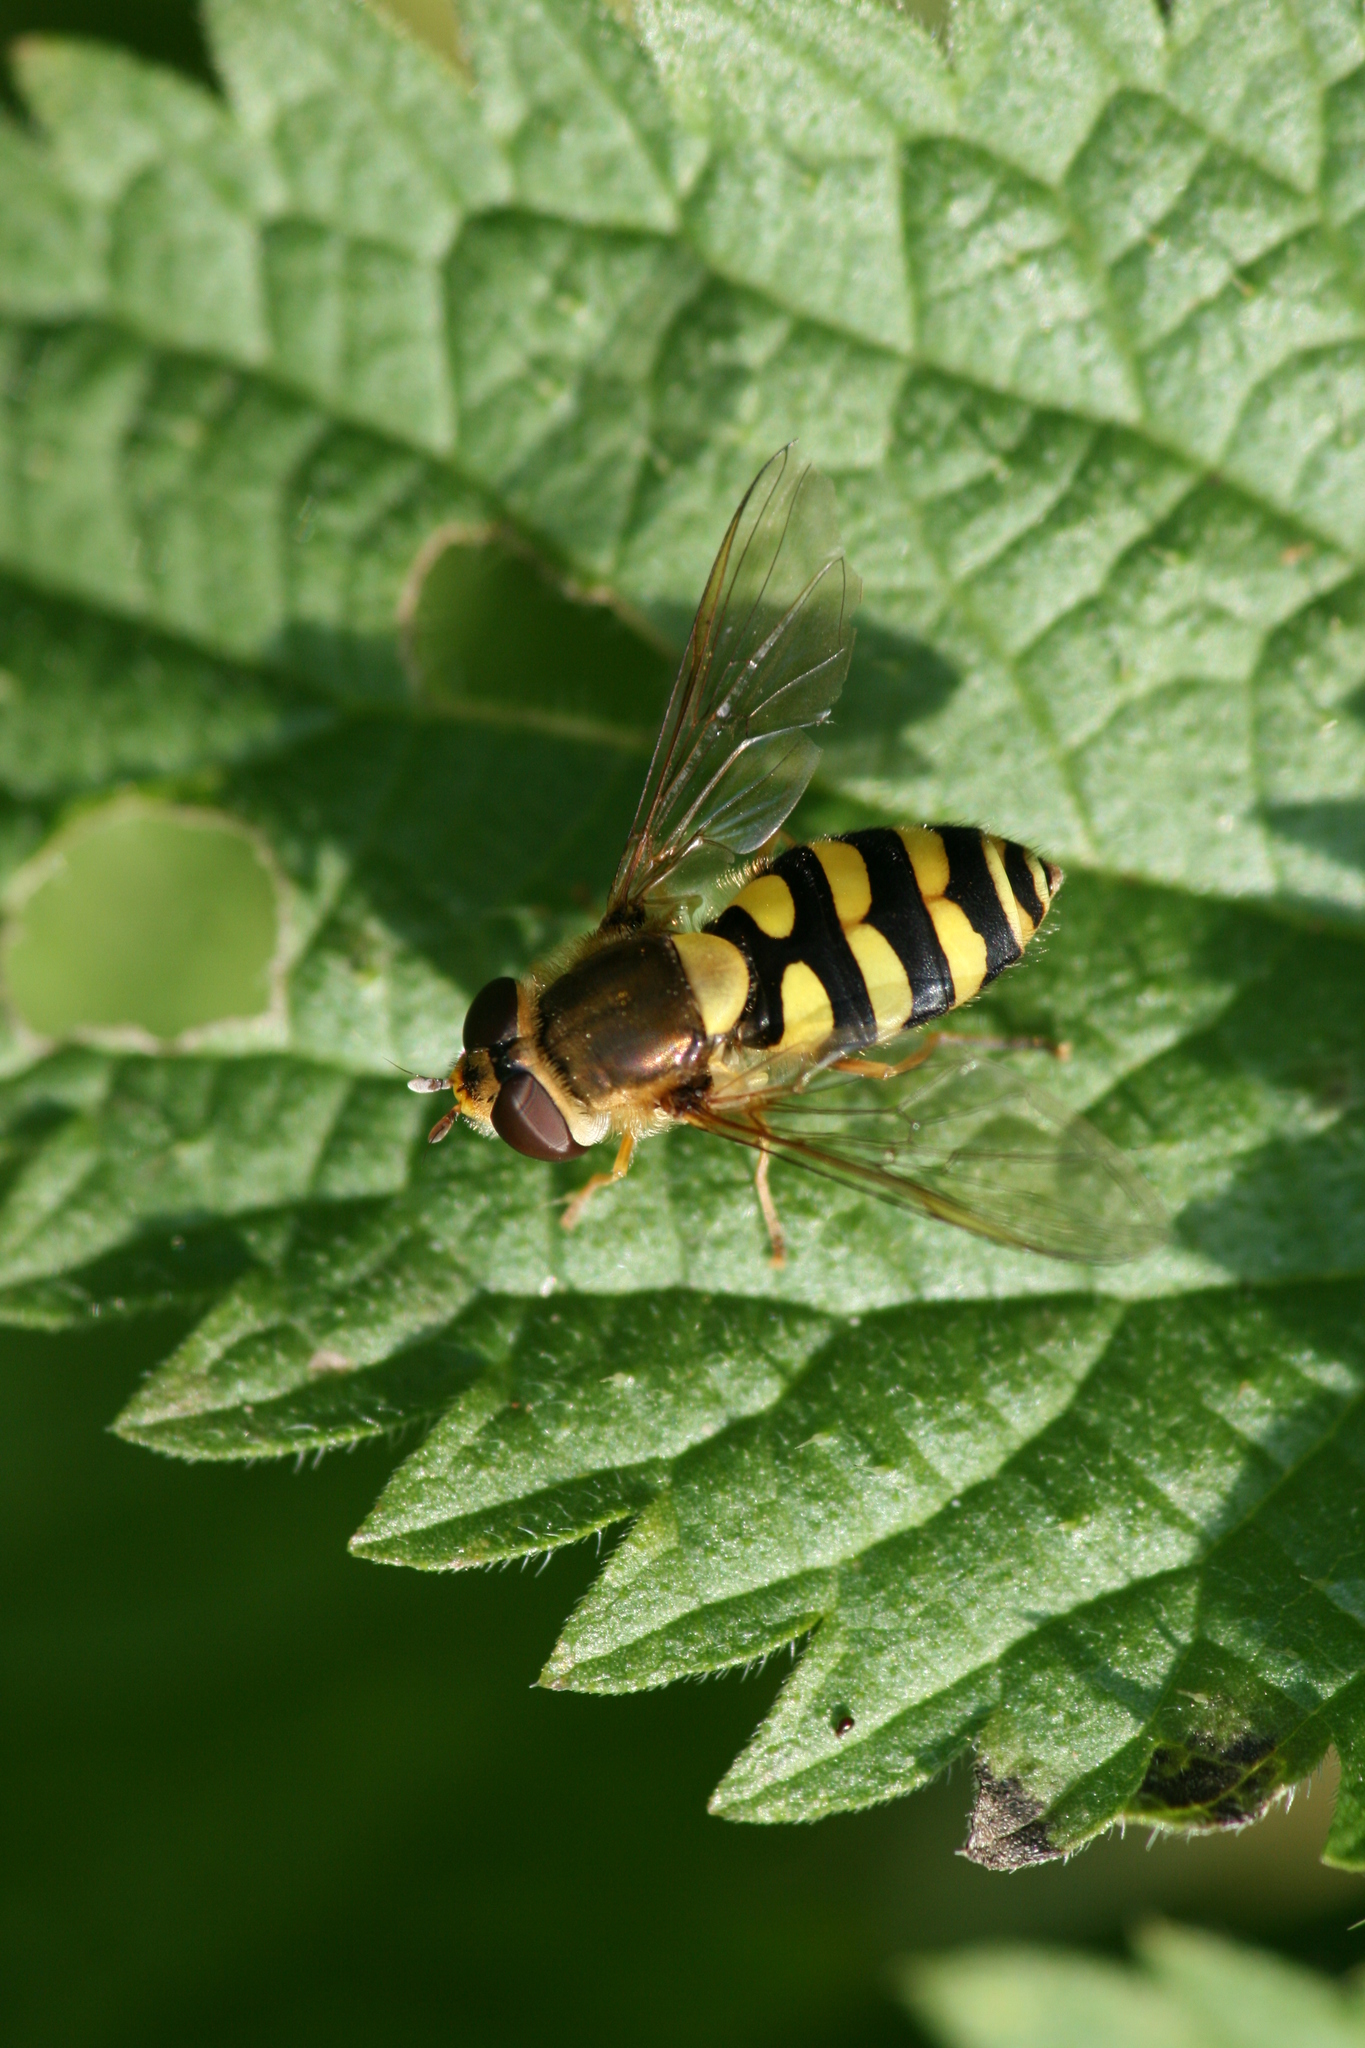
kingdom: Animalia
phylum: Arthropoda
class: Insecta
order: Diptera
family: Syrphidae
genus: Syrphus
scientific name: Syrphus
